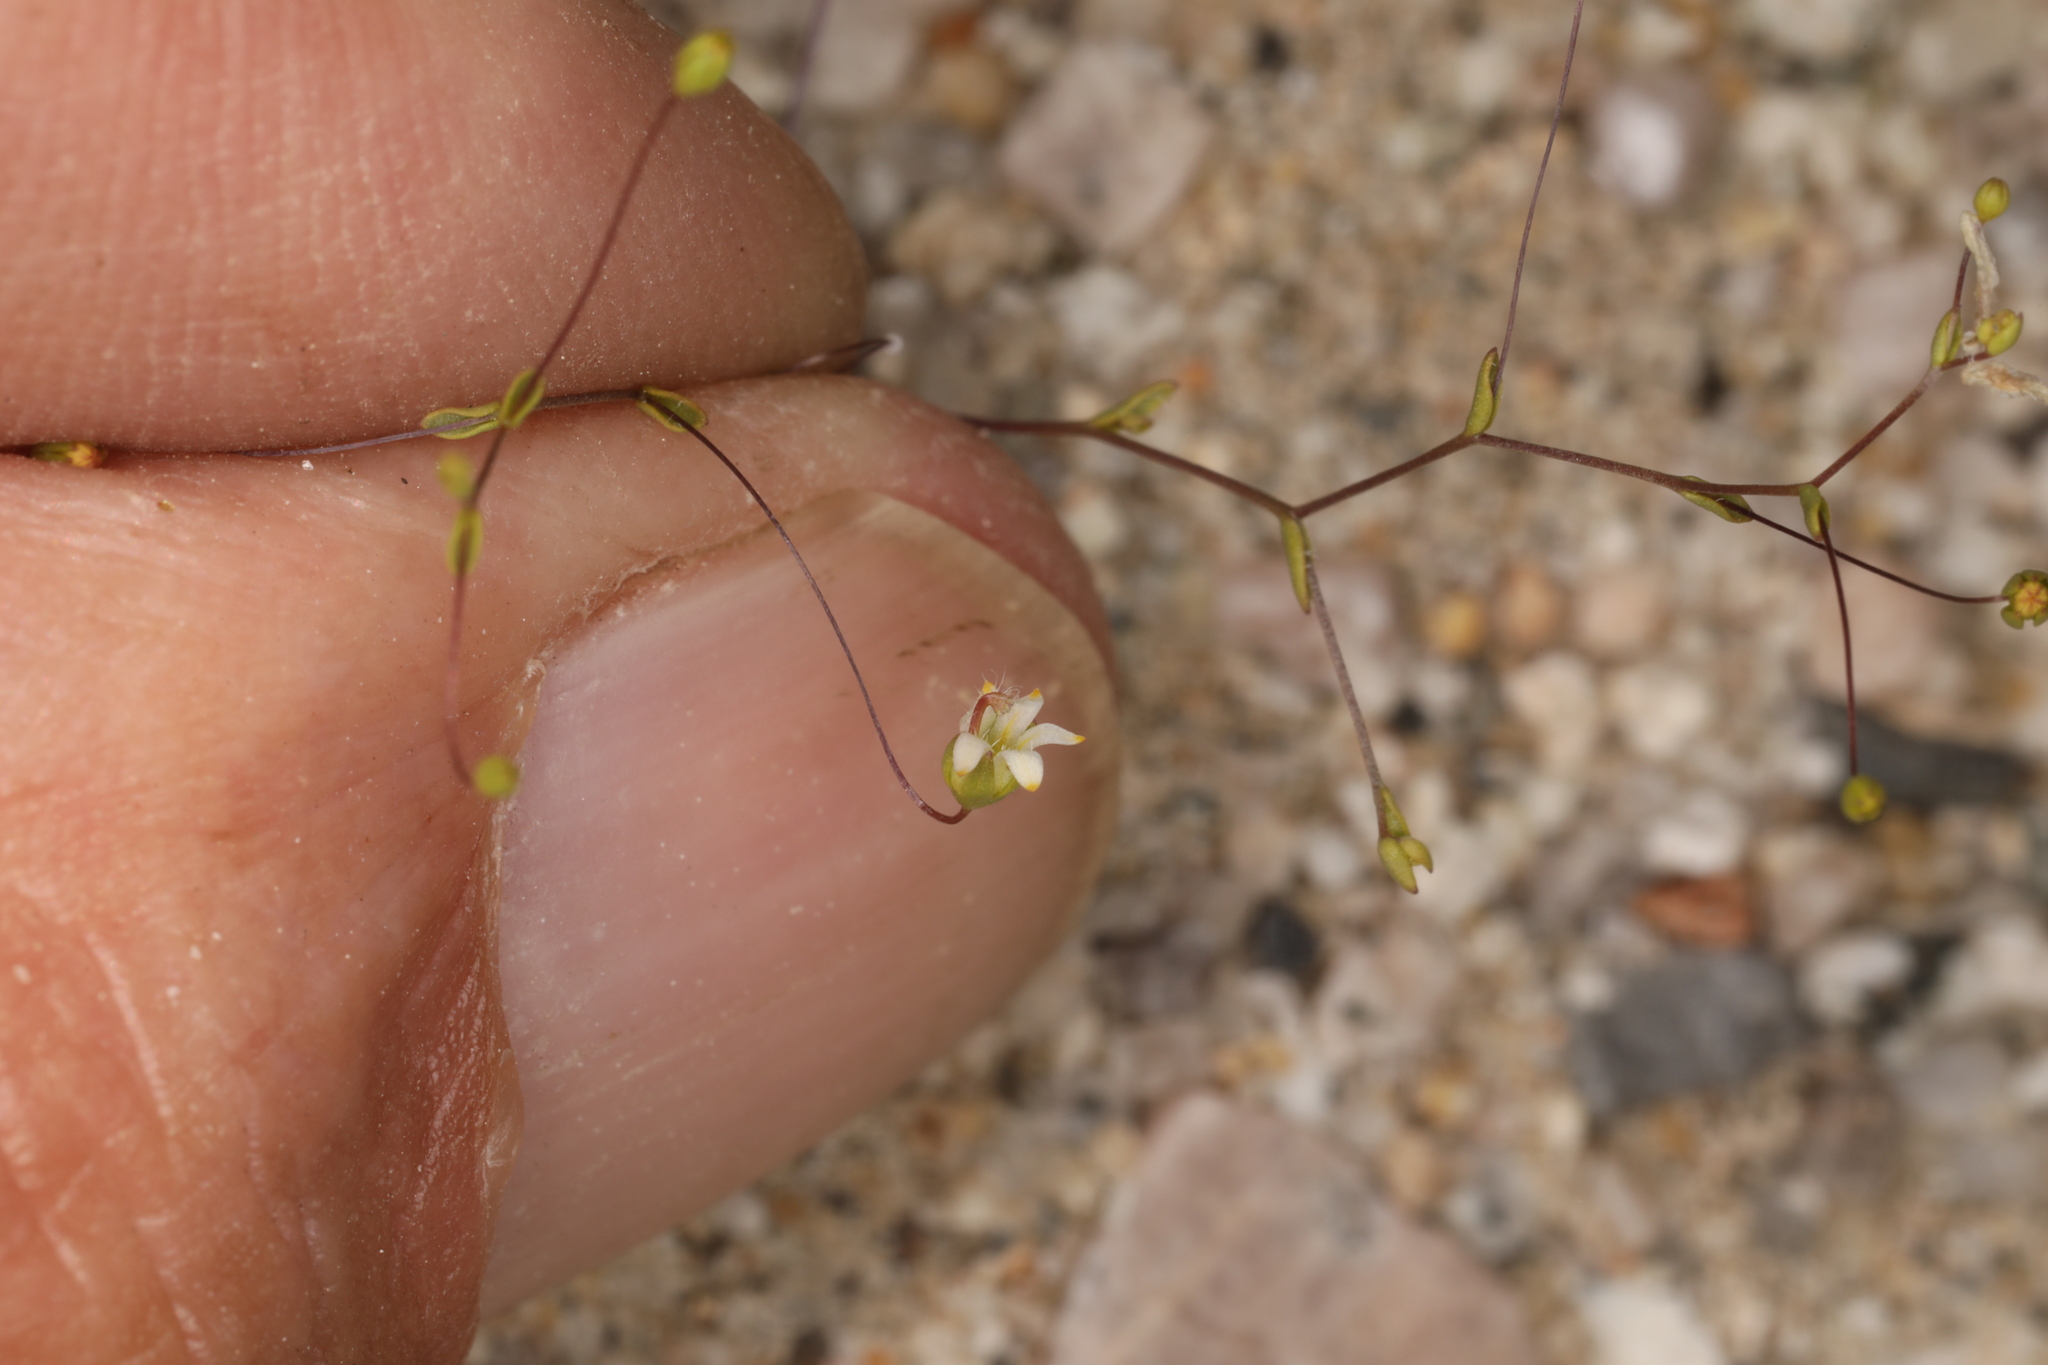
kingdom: Plantae
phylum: Tracheophyta
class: Magnoliopsida
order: Asterales
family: Campanulaceae
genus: Nemacladus
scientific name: Nemacladus eastwoodiae
